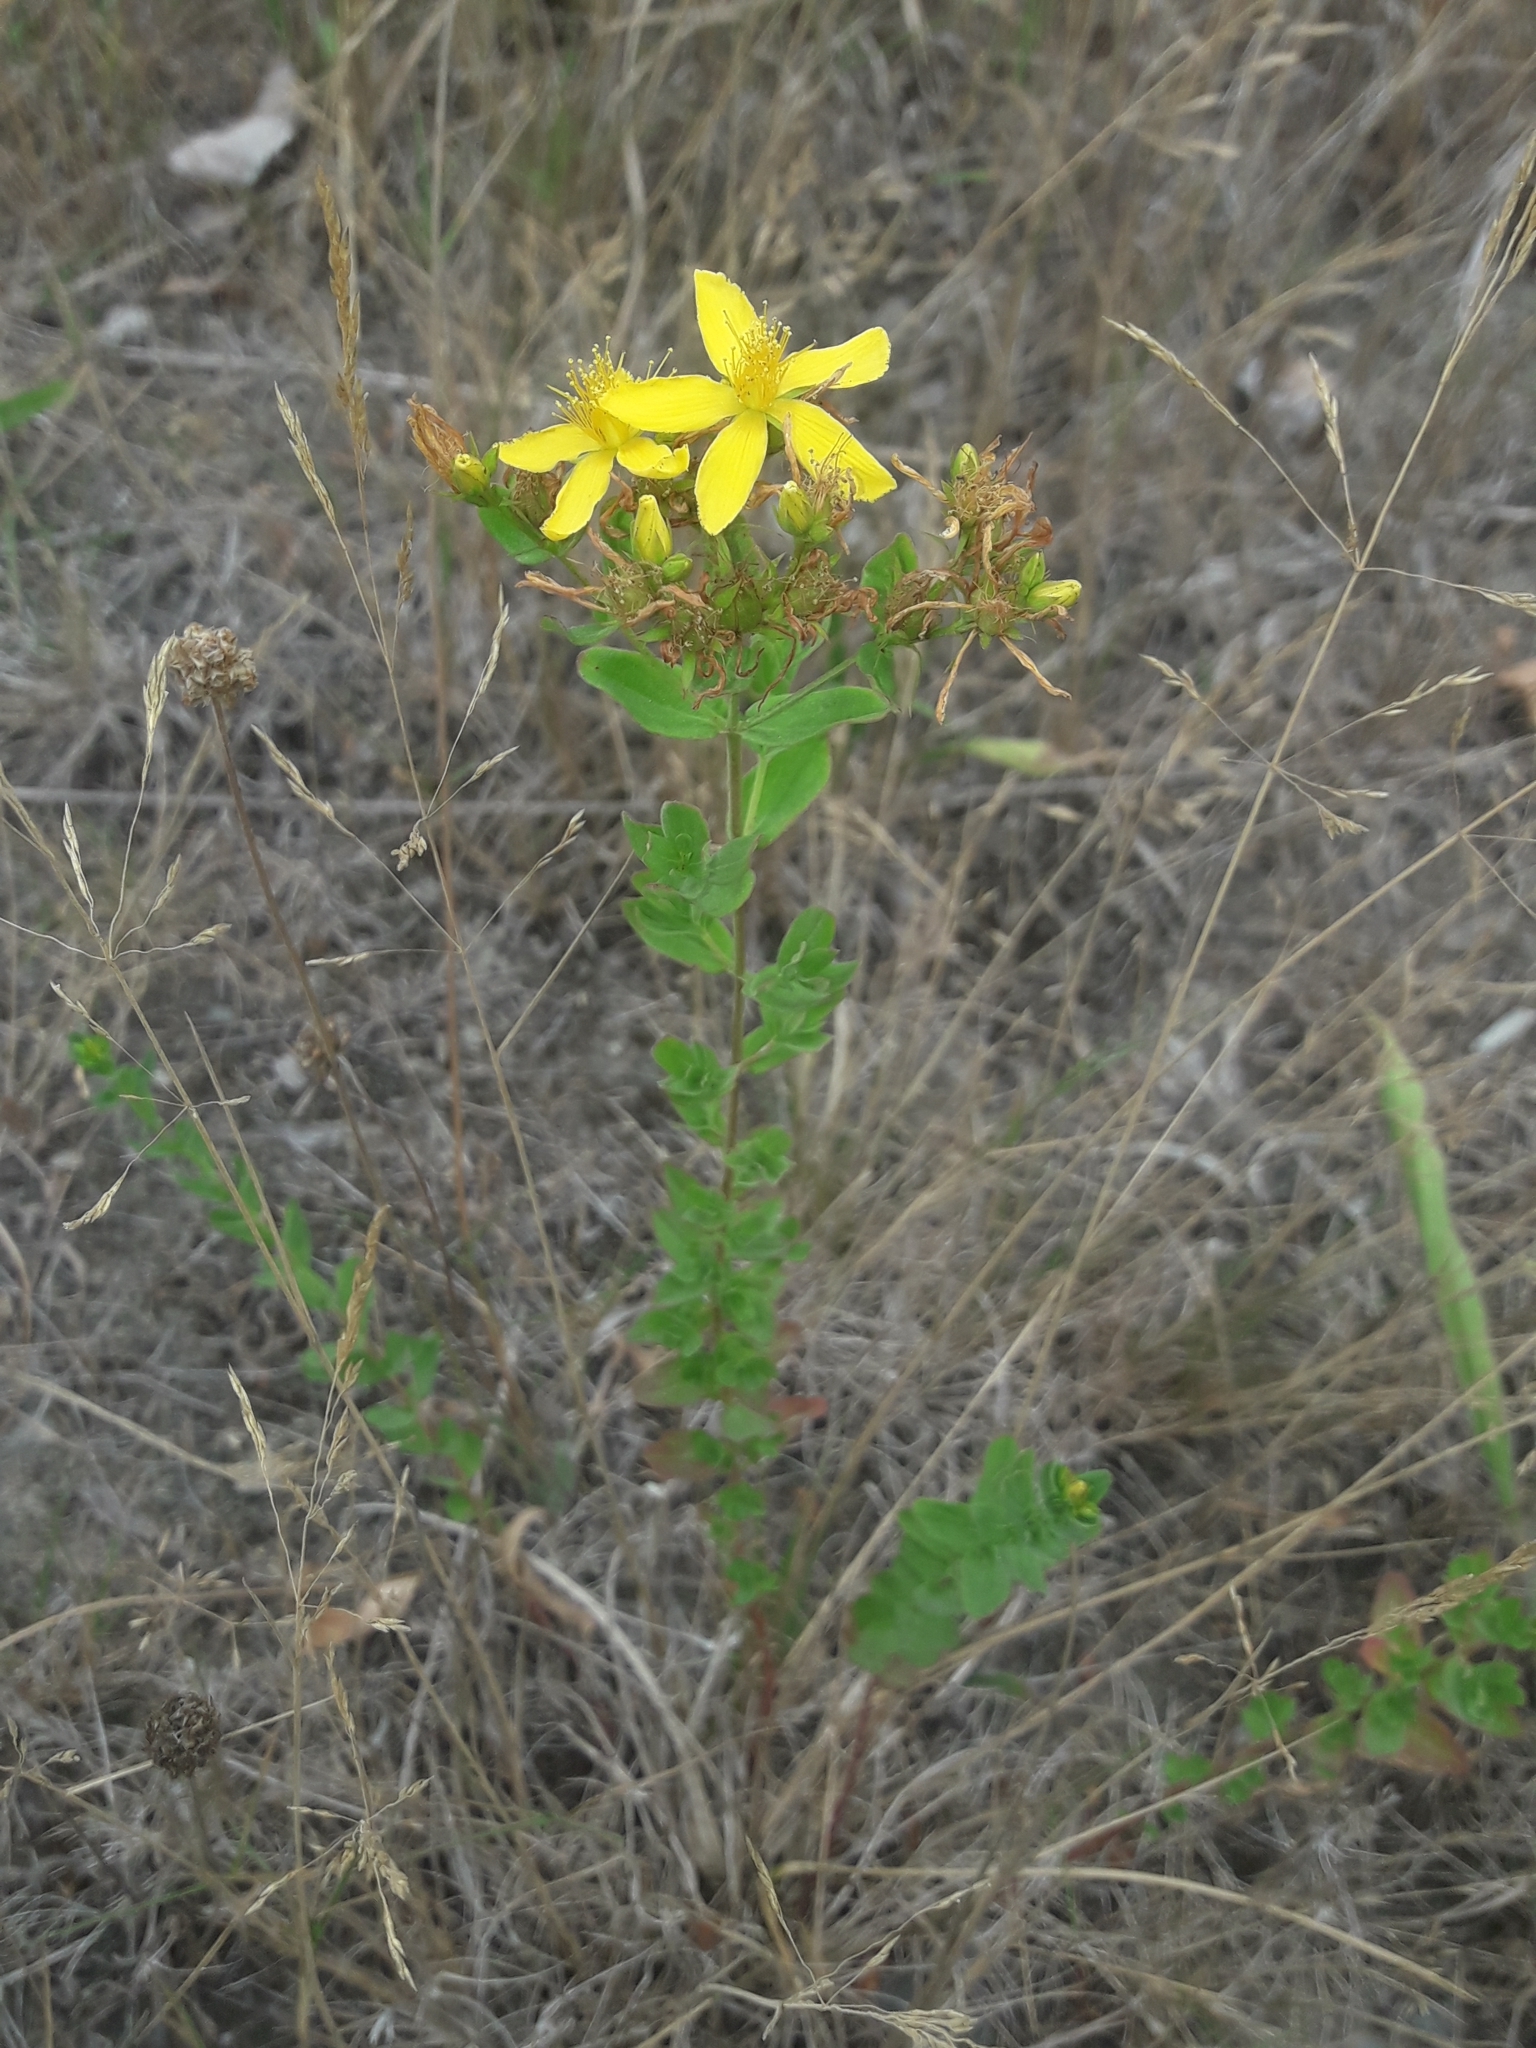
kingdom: Plantae
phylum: Tracheophyta
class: Magnoliopsida
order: Malpighiales
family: Hypericaceae
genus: Hypericum
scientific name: Hypericum perforatum
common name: Common st. johnswort
